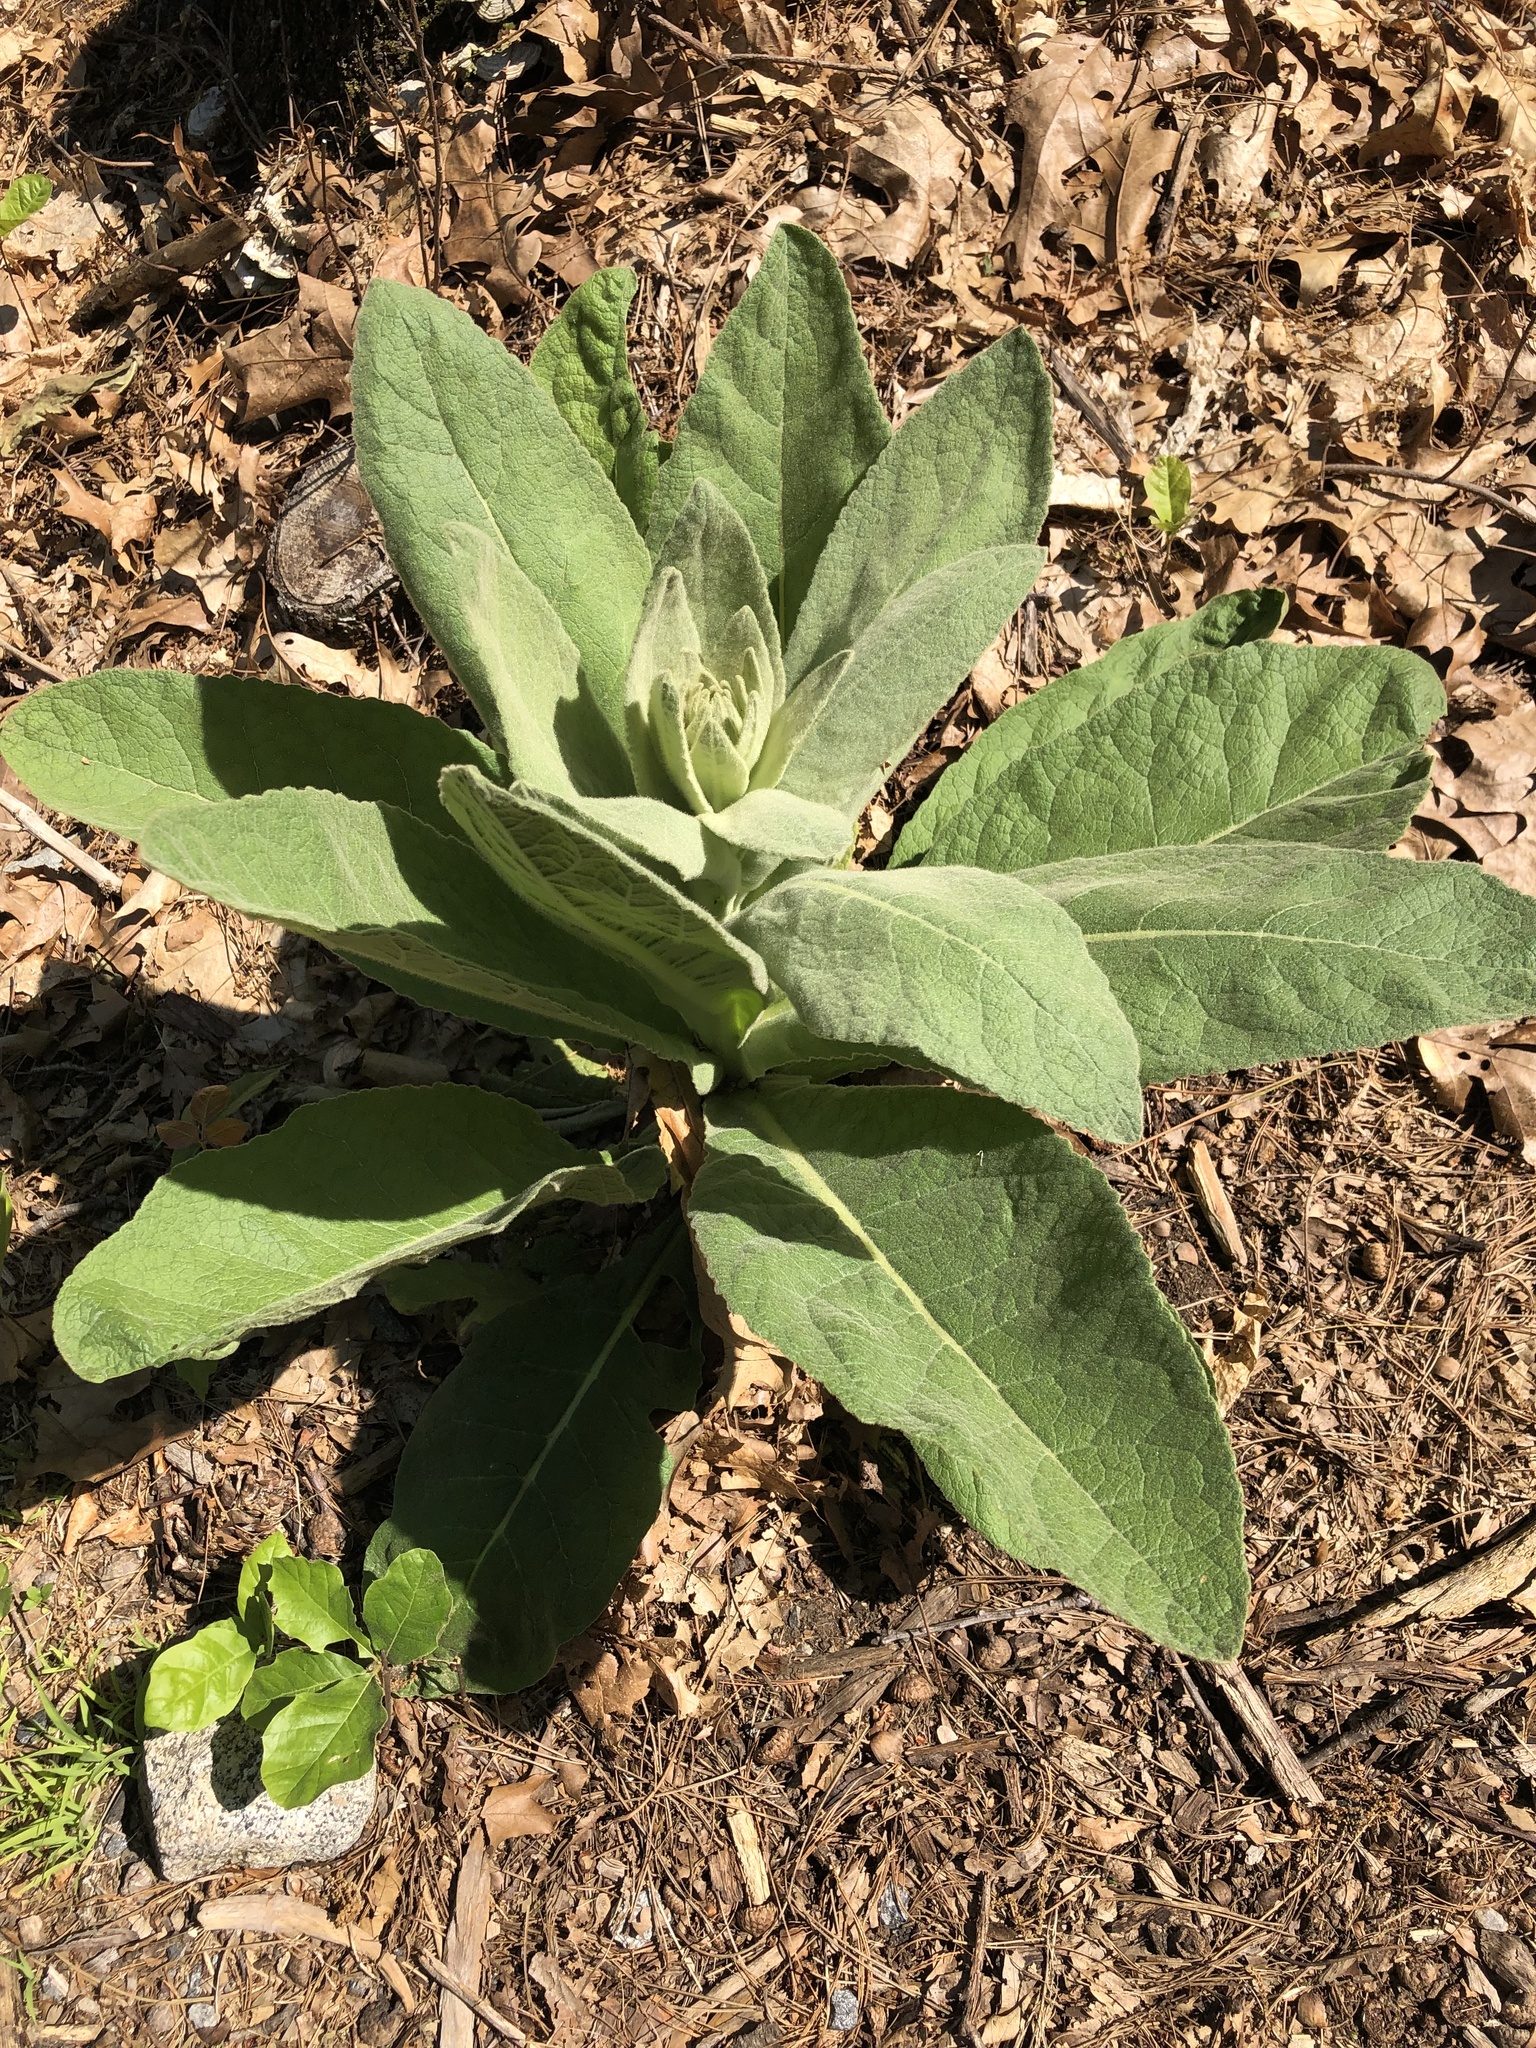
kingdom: Plantae
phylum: Tracheophyta
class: Magnoliopsida
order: Lamiales
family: Scrophulariaceae
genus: Verbascum
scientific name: Verbascum thapsus
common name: Common mullein
